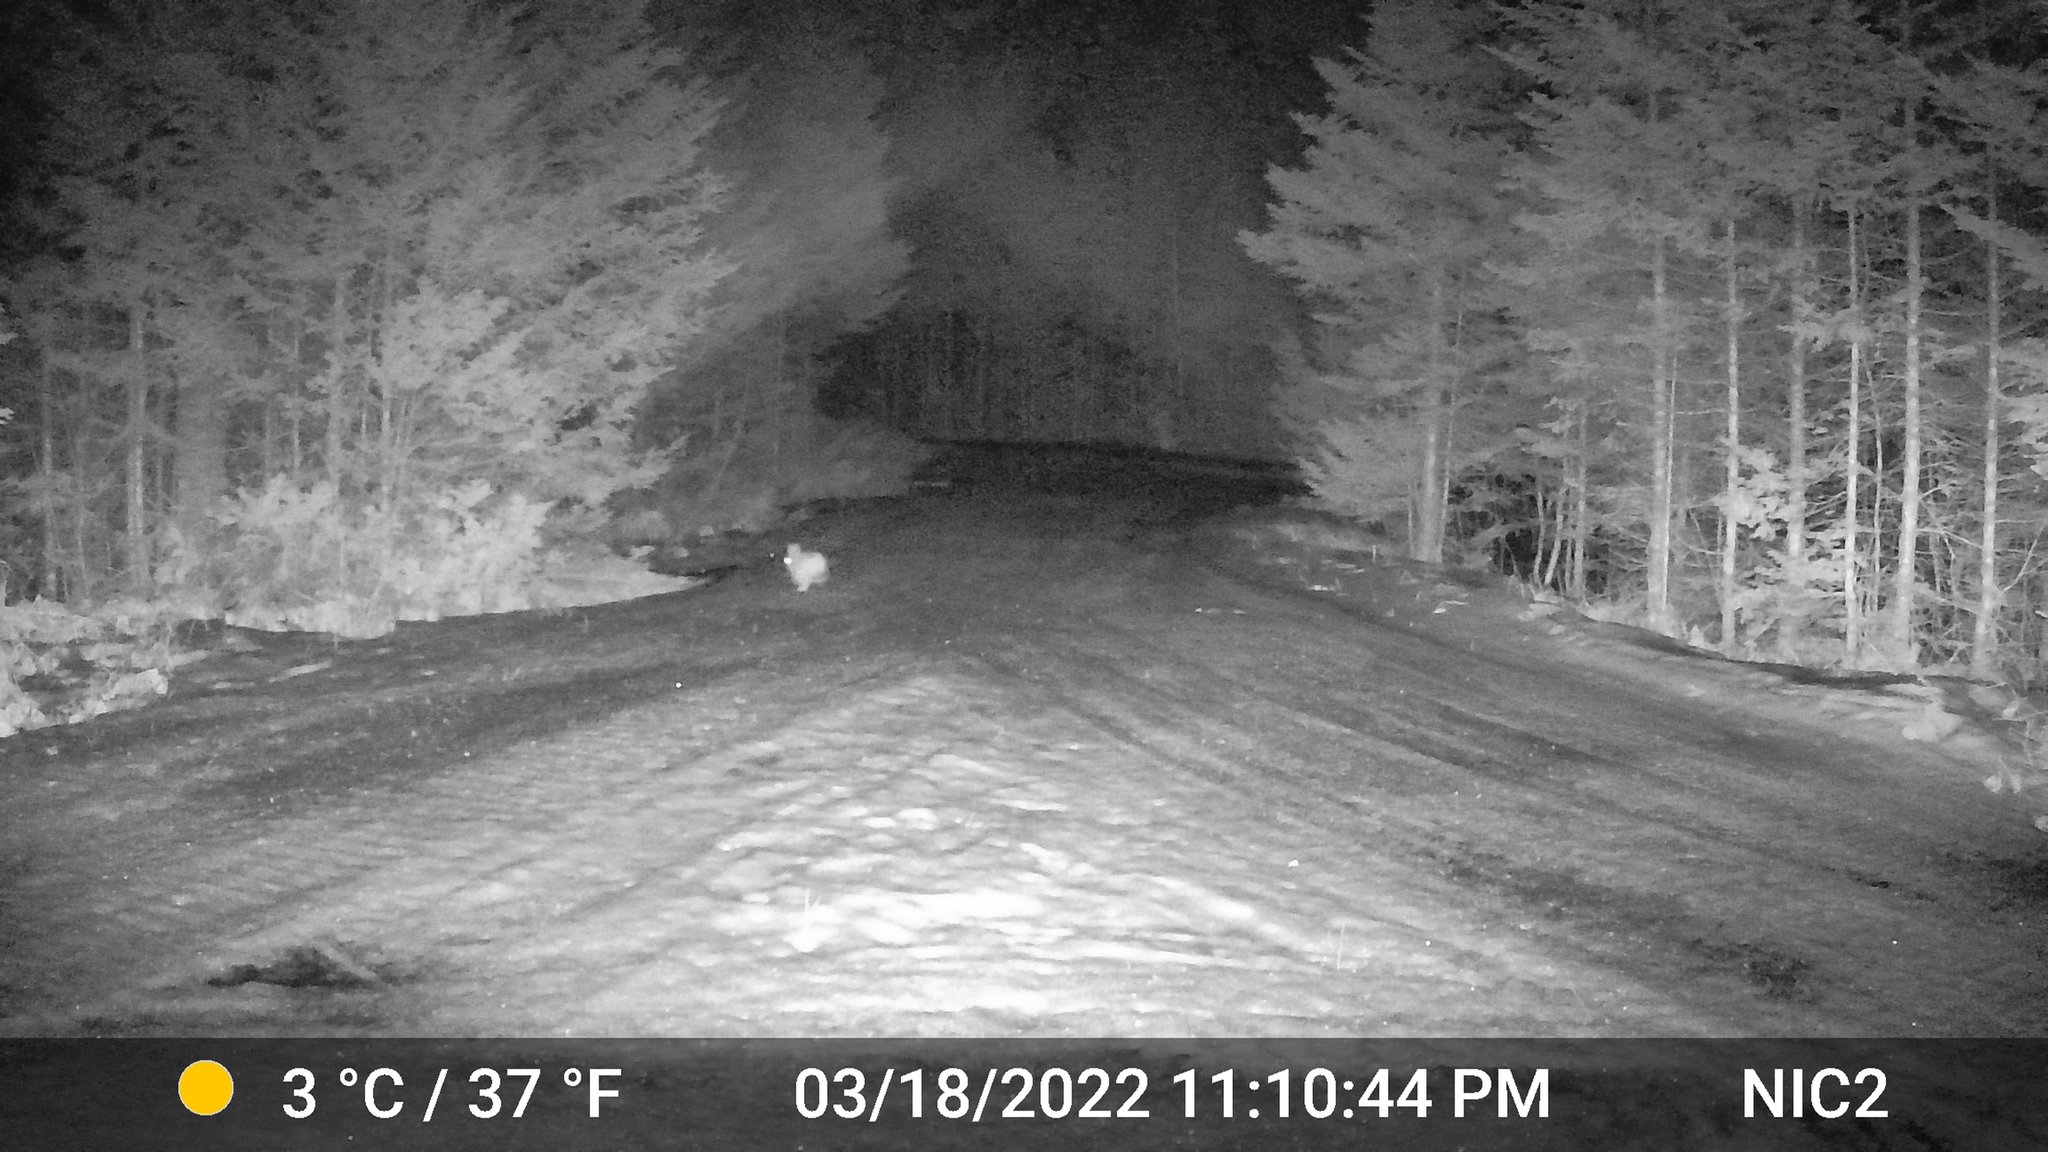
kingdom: Animalia
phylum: Chordata
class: Mammalia
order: Lagomorpha
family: Leporidae
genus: Lepus
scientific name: Lepus americanus
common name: Snowshoe hare
